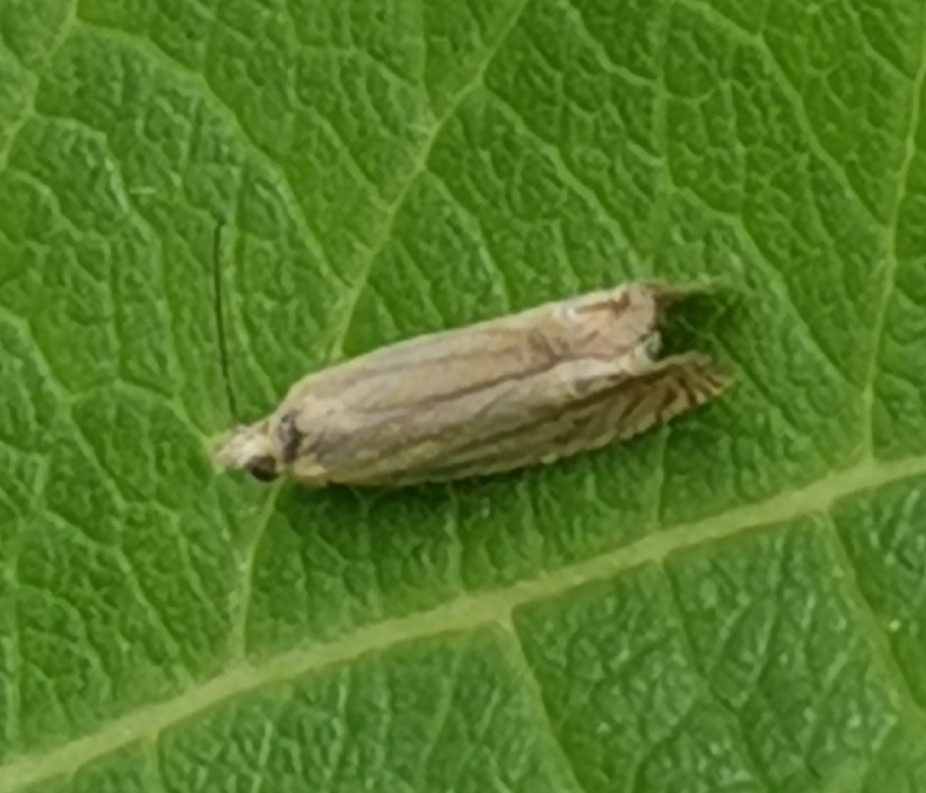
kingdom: Animalia
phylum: Arthropoda
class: Insecta
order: Lepidoptera
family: Crambidae
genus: Chrysoteuchia
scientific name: Chrysoteuchia culmella
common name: Garden grass-veneer
